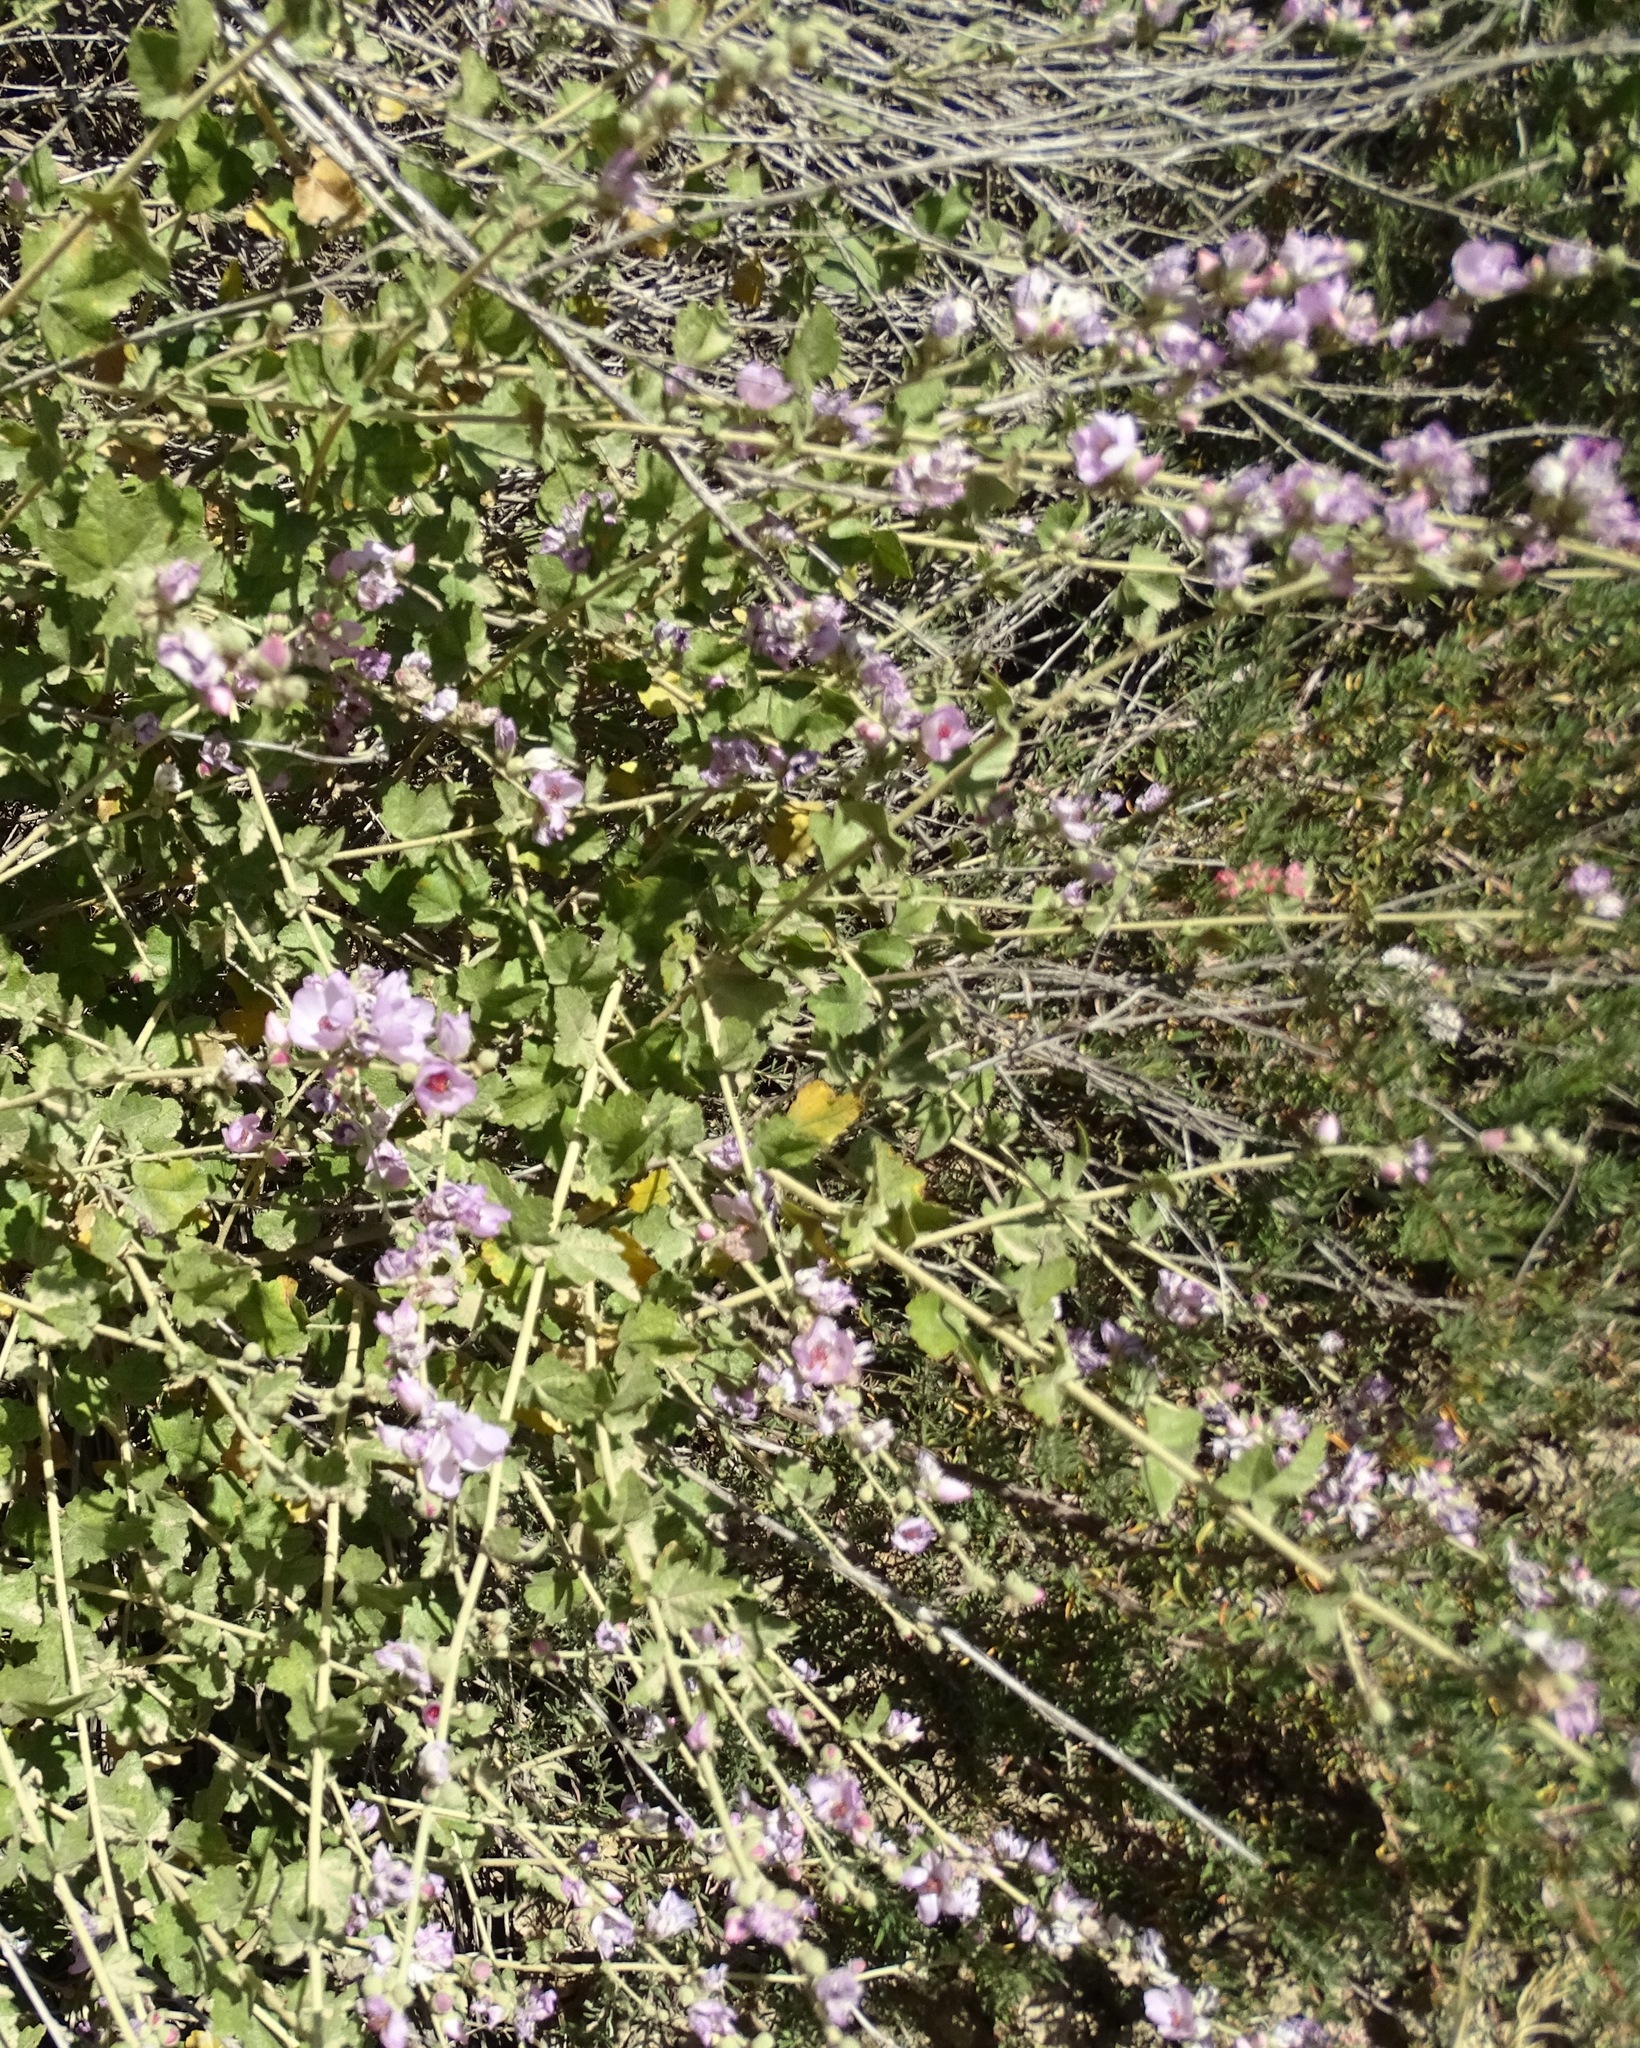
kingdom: Plantae
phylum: Tracheophyta
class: Magnoliopsida
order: Malvales
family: Malvaceae
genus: Malacothamnus
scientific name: Malacothamnus fasciculatus
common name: Sant cruz island bush-mallow
